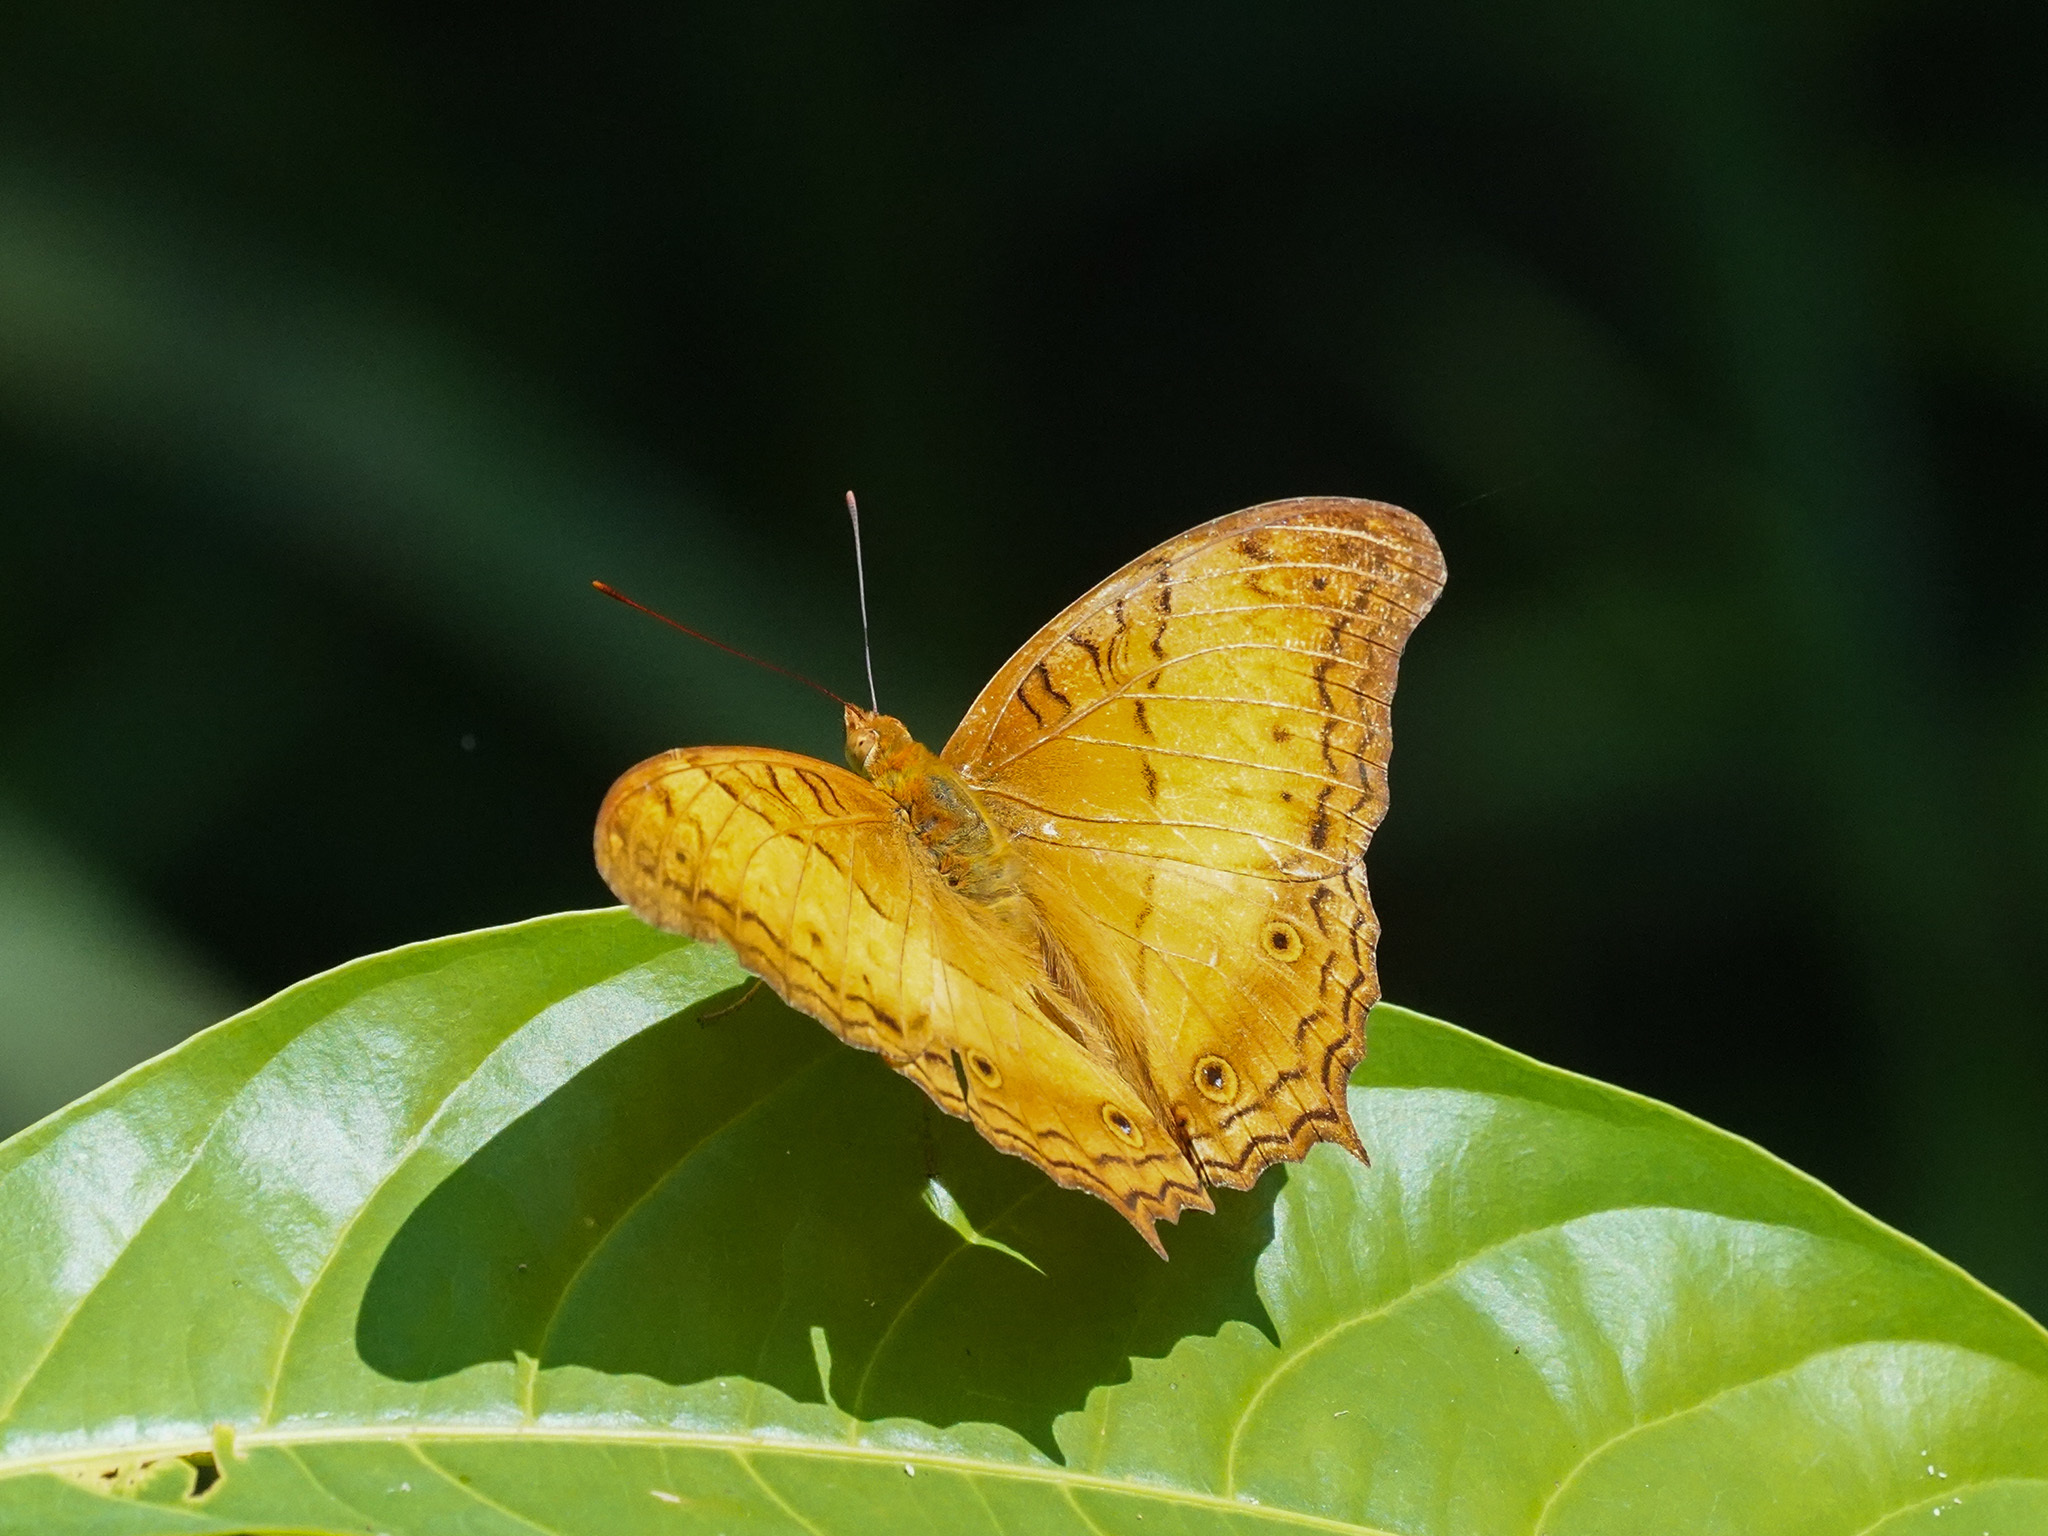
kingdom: Animalia
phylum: Arthropoda
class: Insecta
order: Lepidoptera
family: Nymphalidae
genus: Vindula
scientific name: Vindula deione
